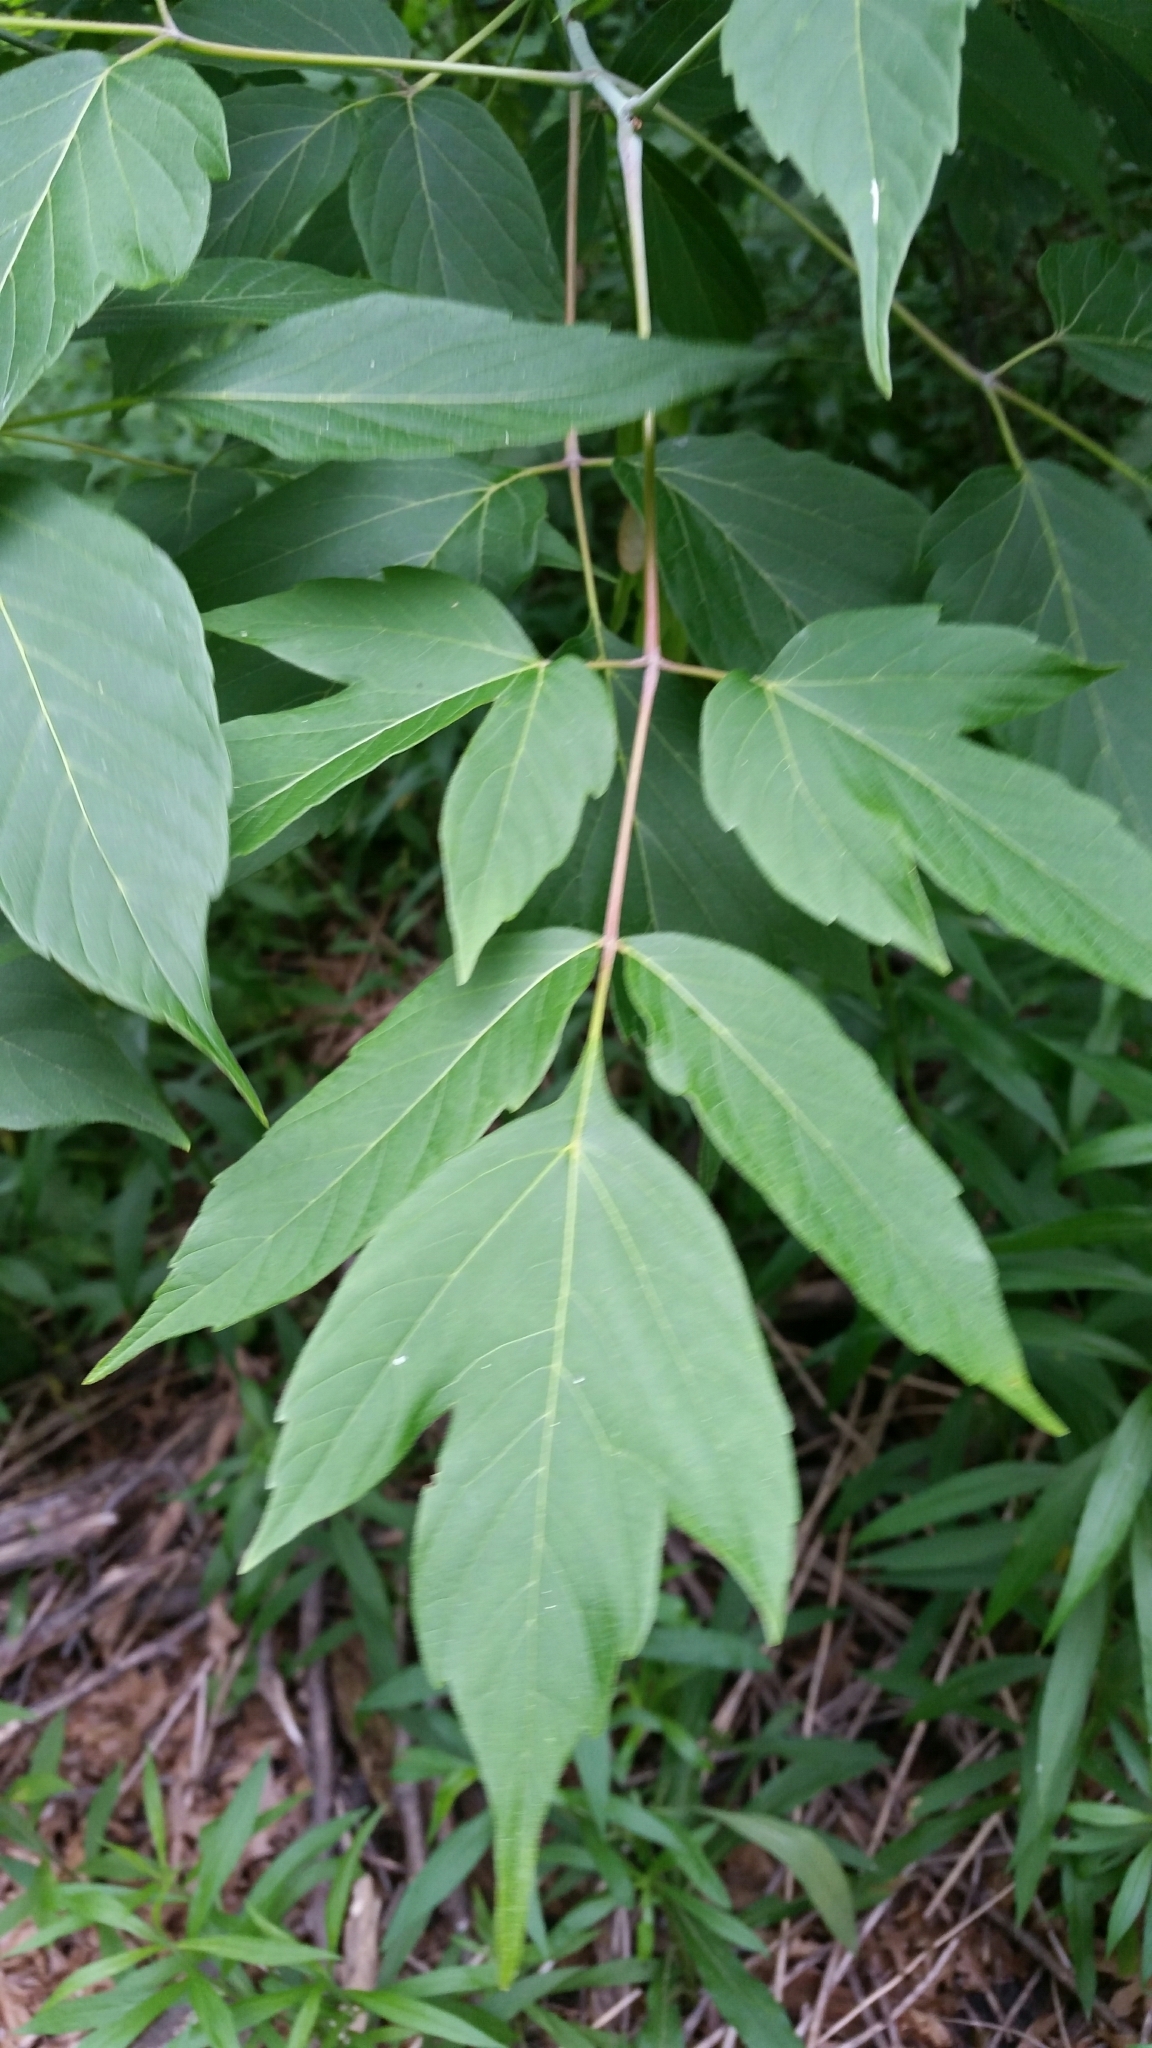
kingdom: Plantae
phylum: Tracheophyta
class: Magnoliopsida
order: Sapindales
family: Sapindaceae
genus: Acer
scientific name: Acer negundo
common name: Ashleaf maple
